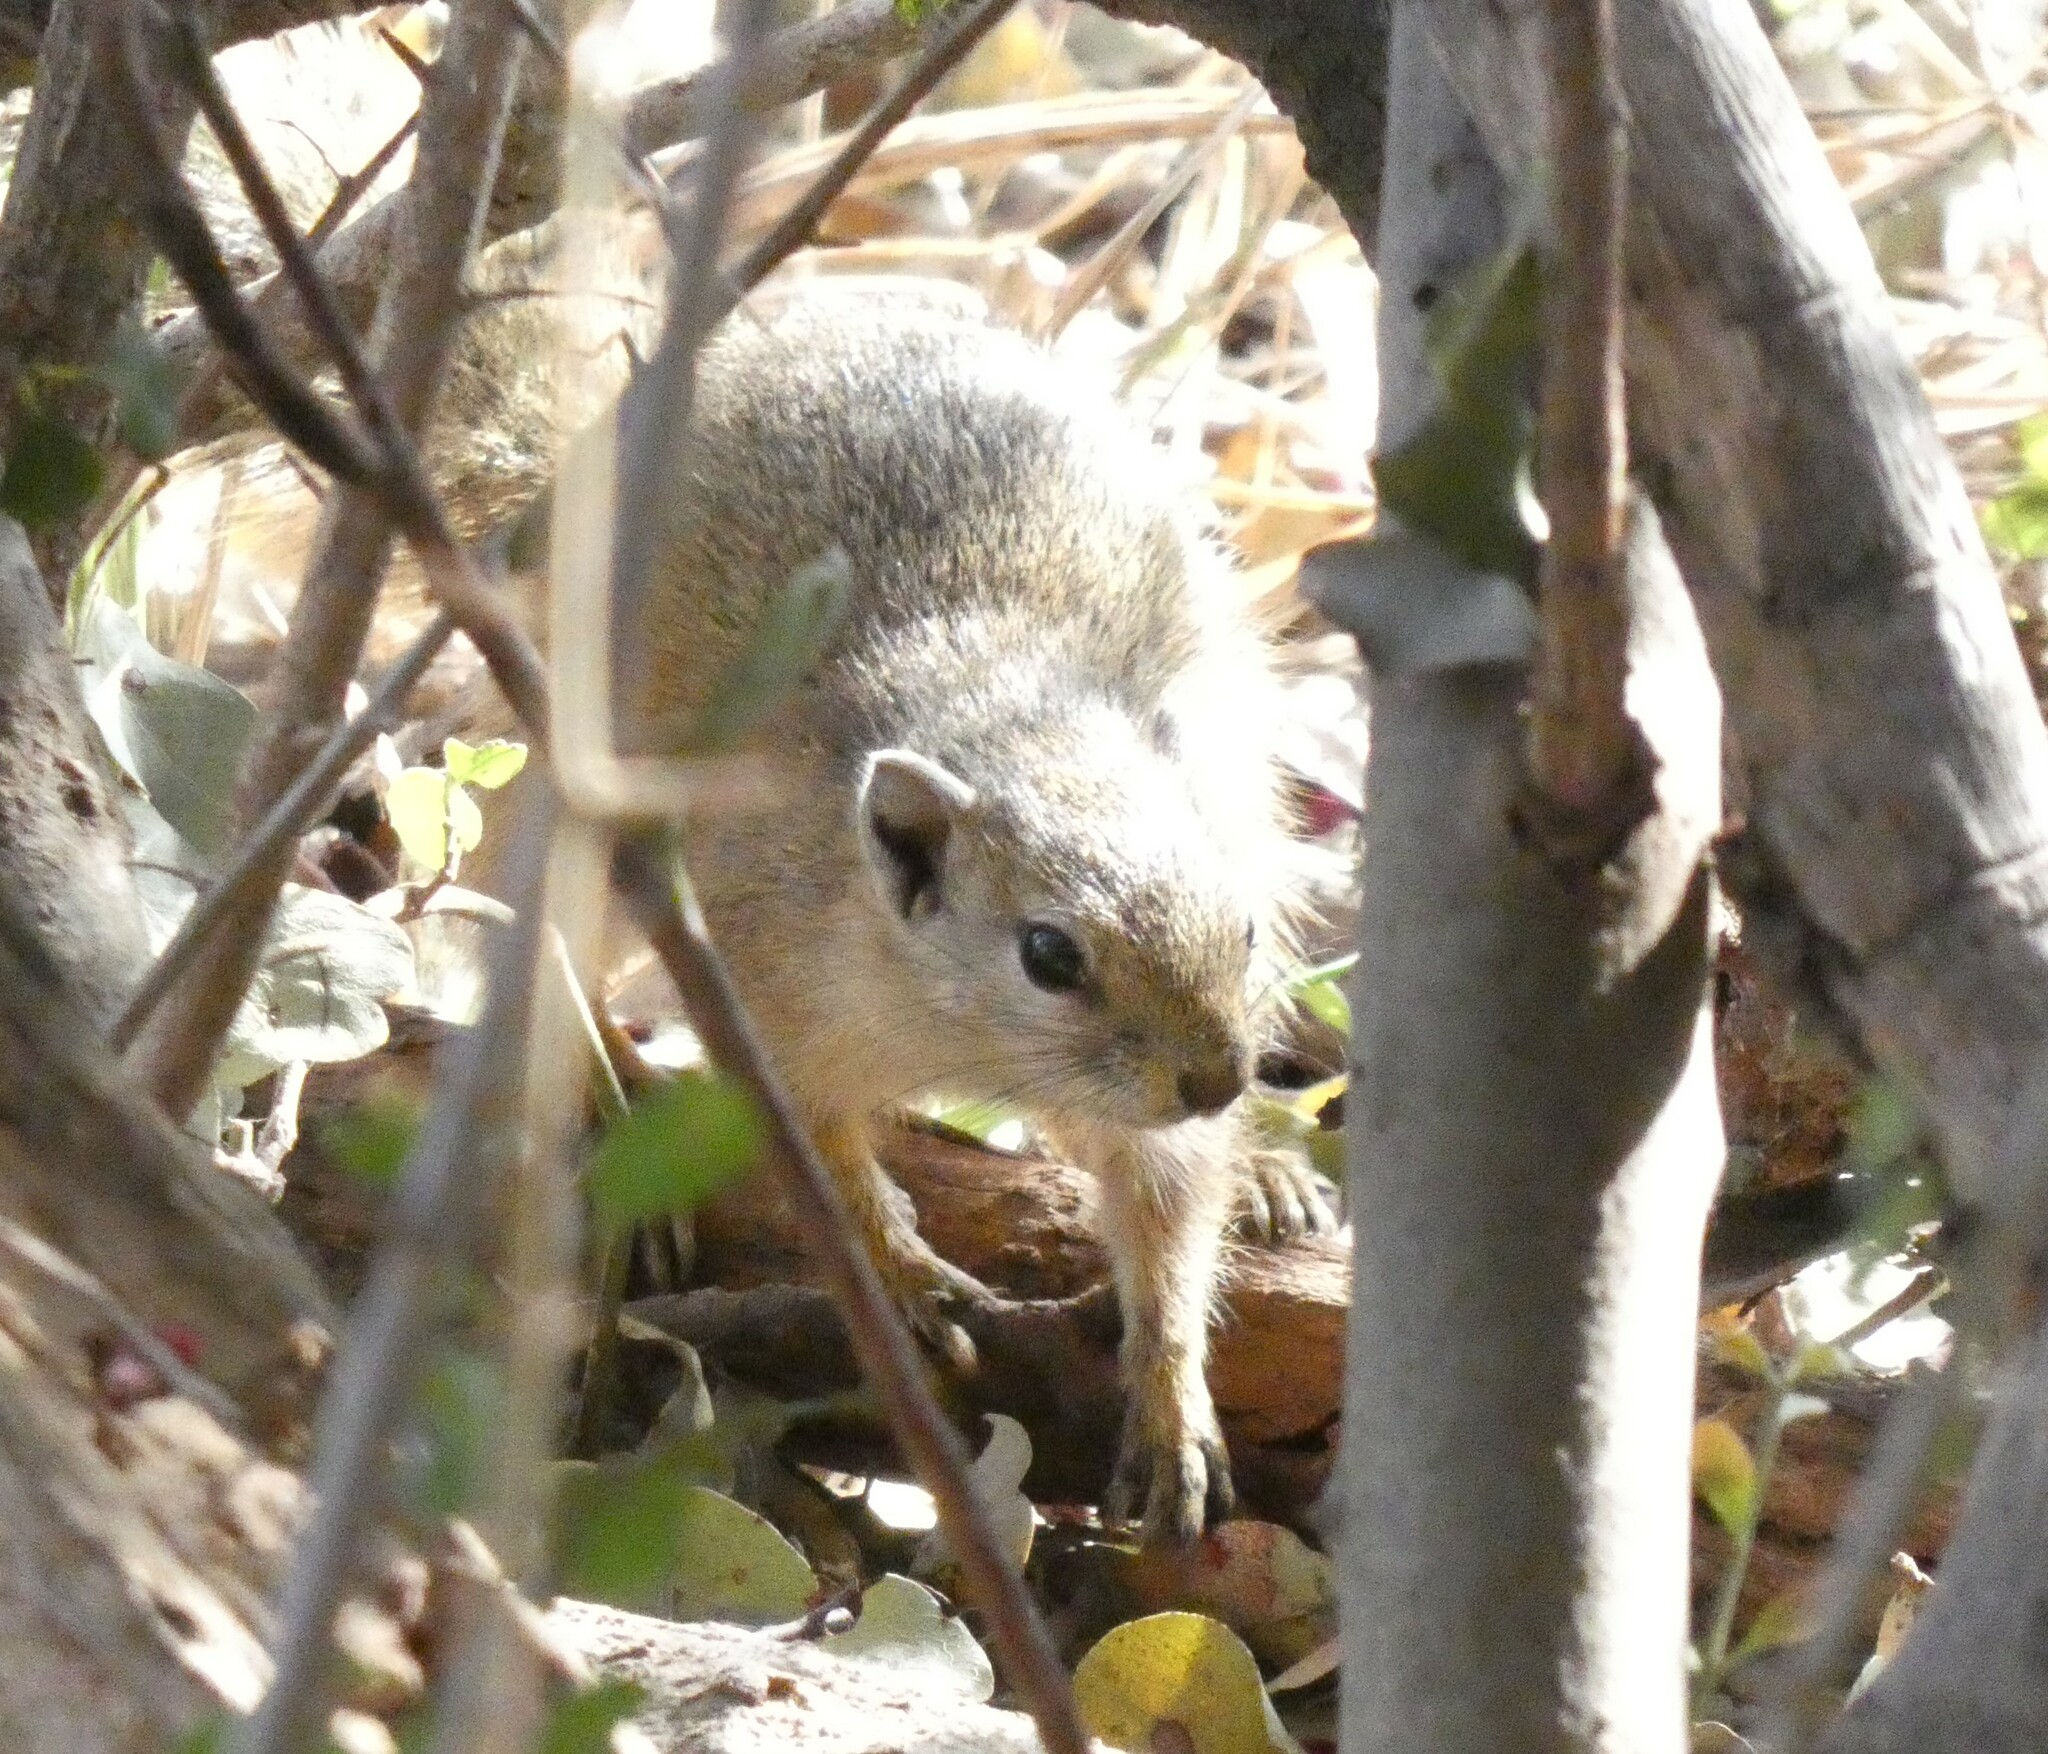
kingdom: Animalia
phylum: Chordata
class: Mammalia
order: Rodentia
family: Sciuridae
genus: Paraxerus
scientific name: Paraxerus cepapi
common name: Smith's bush squirrel
